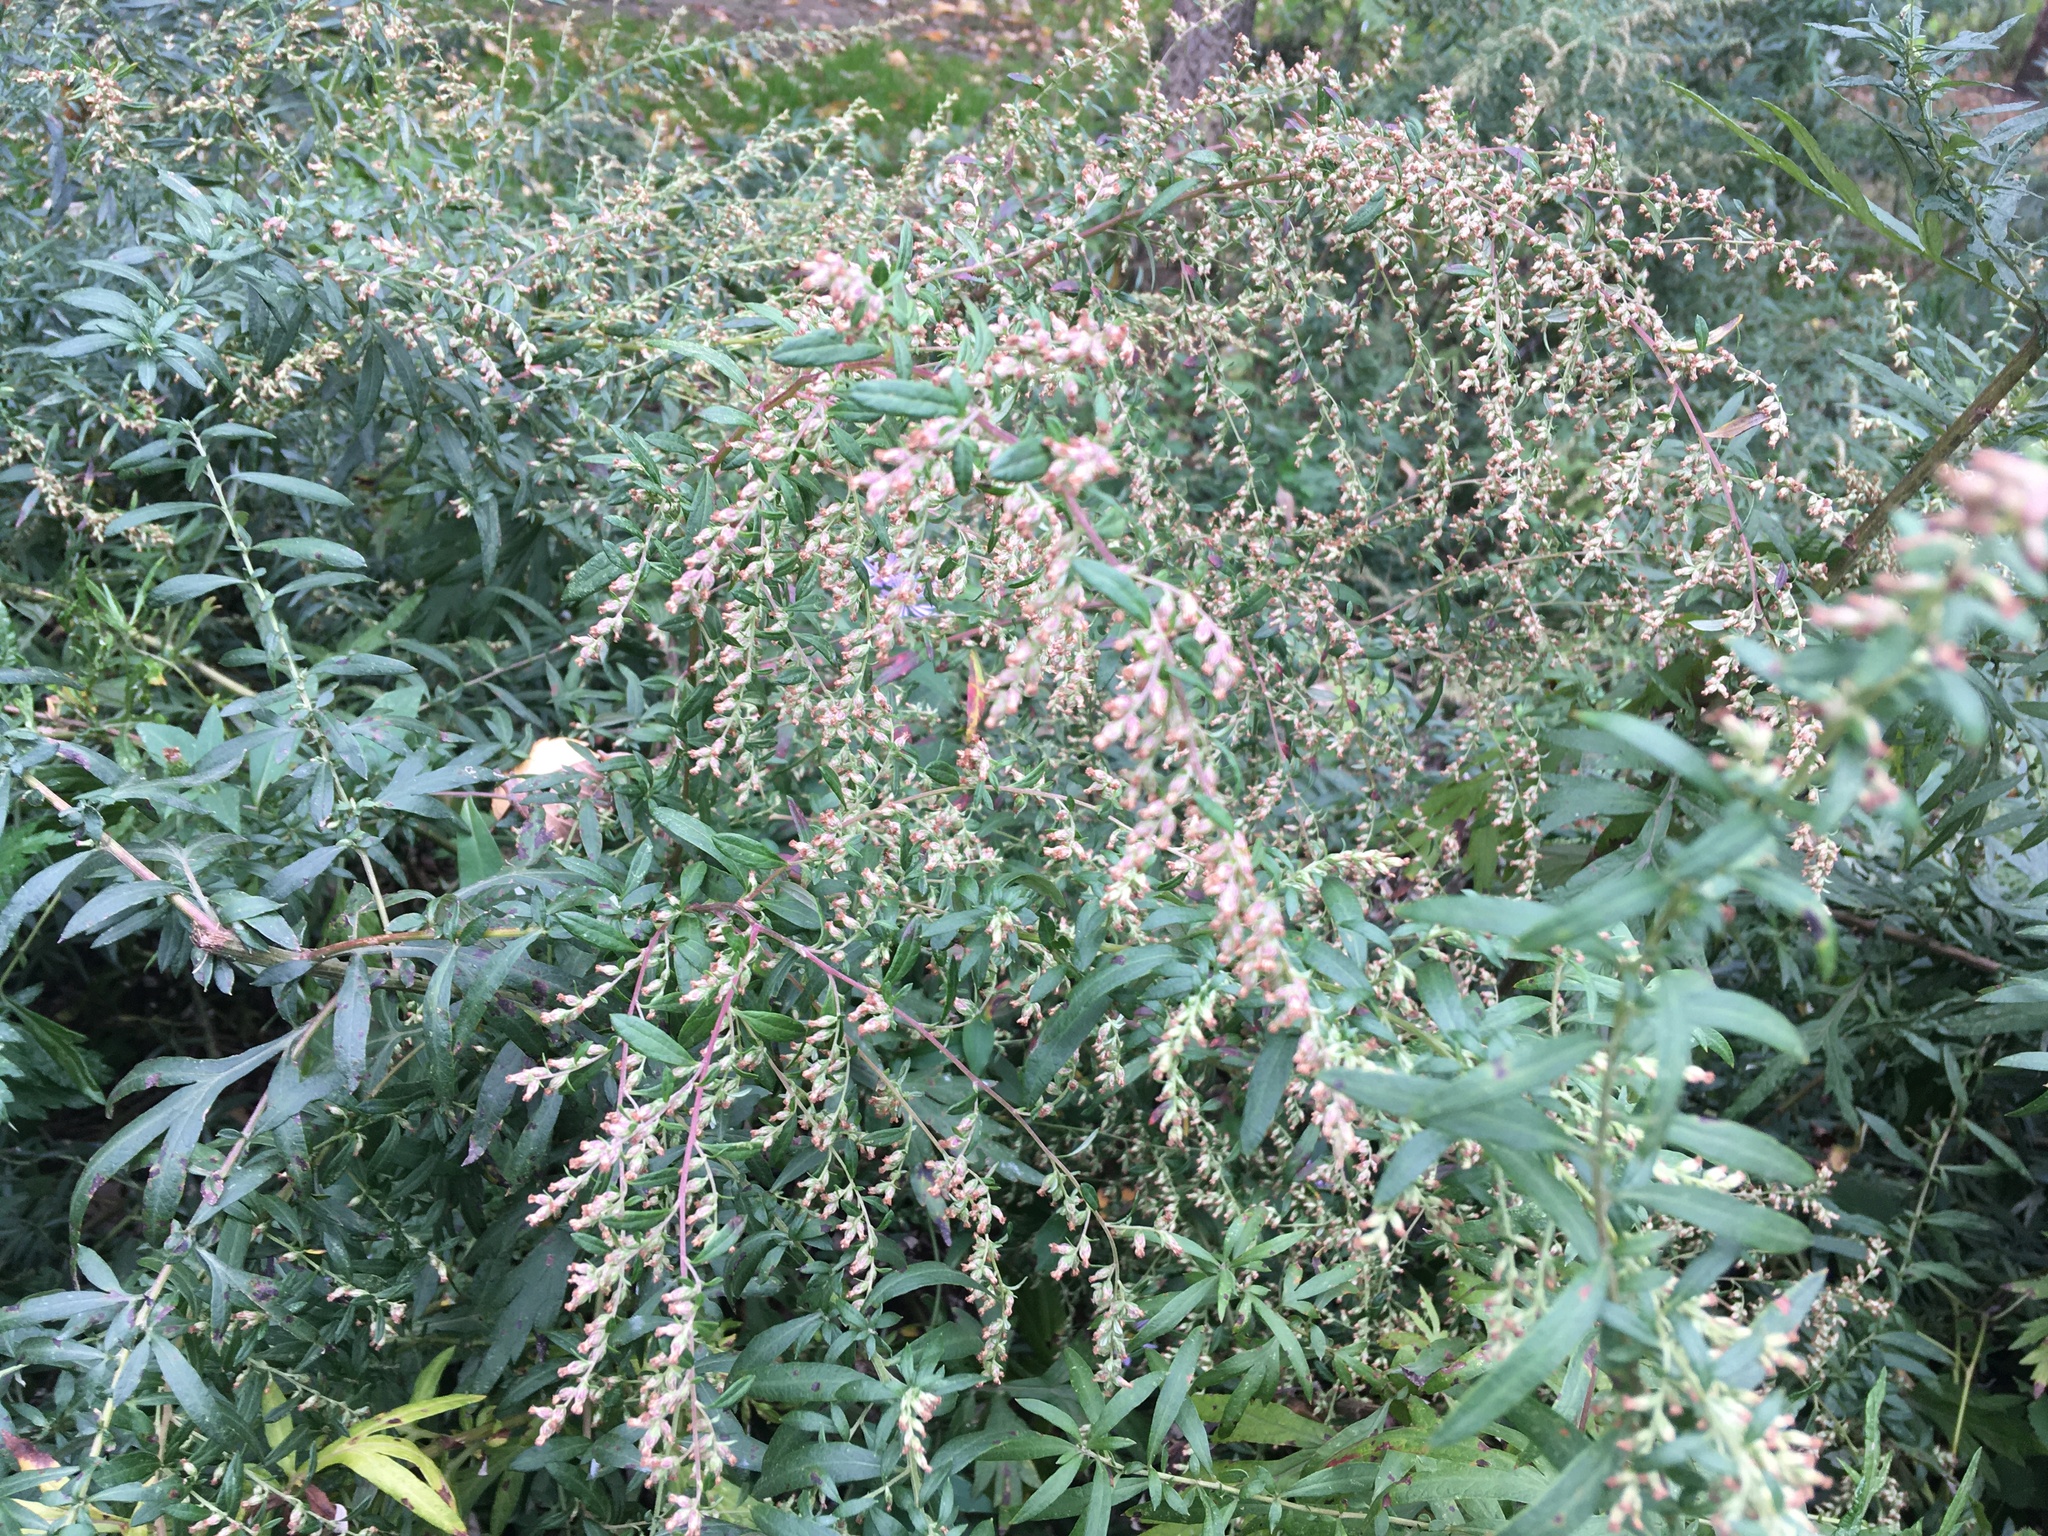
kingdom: Plantae
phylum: Tracheophyta
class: Magnoliopsida
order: Asterales
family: Asteraceae
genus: Artemisia
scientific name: Artemisia vulgaris
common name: Mugwort
